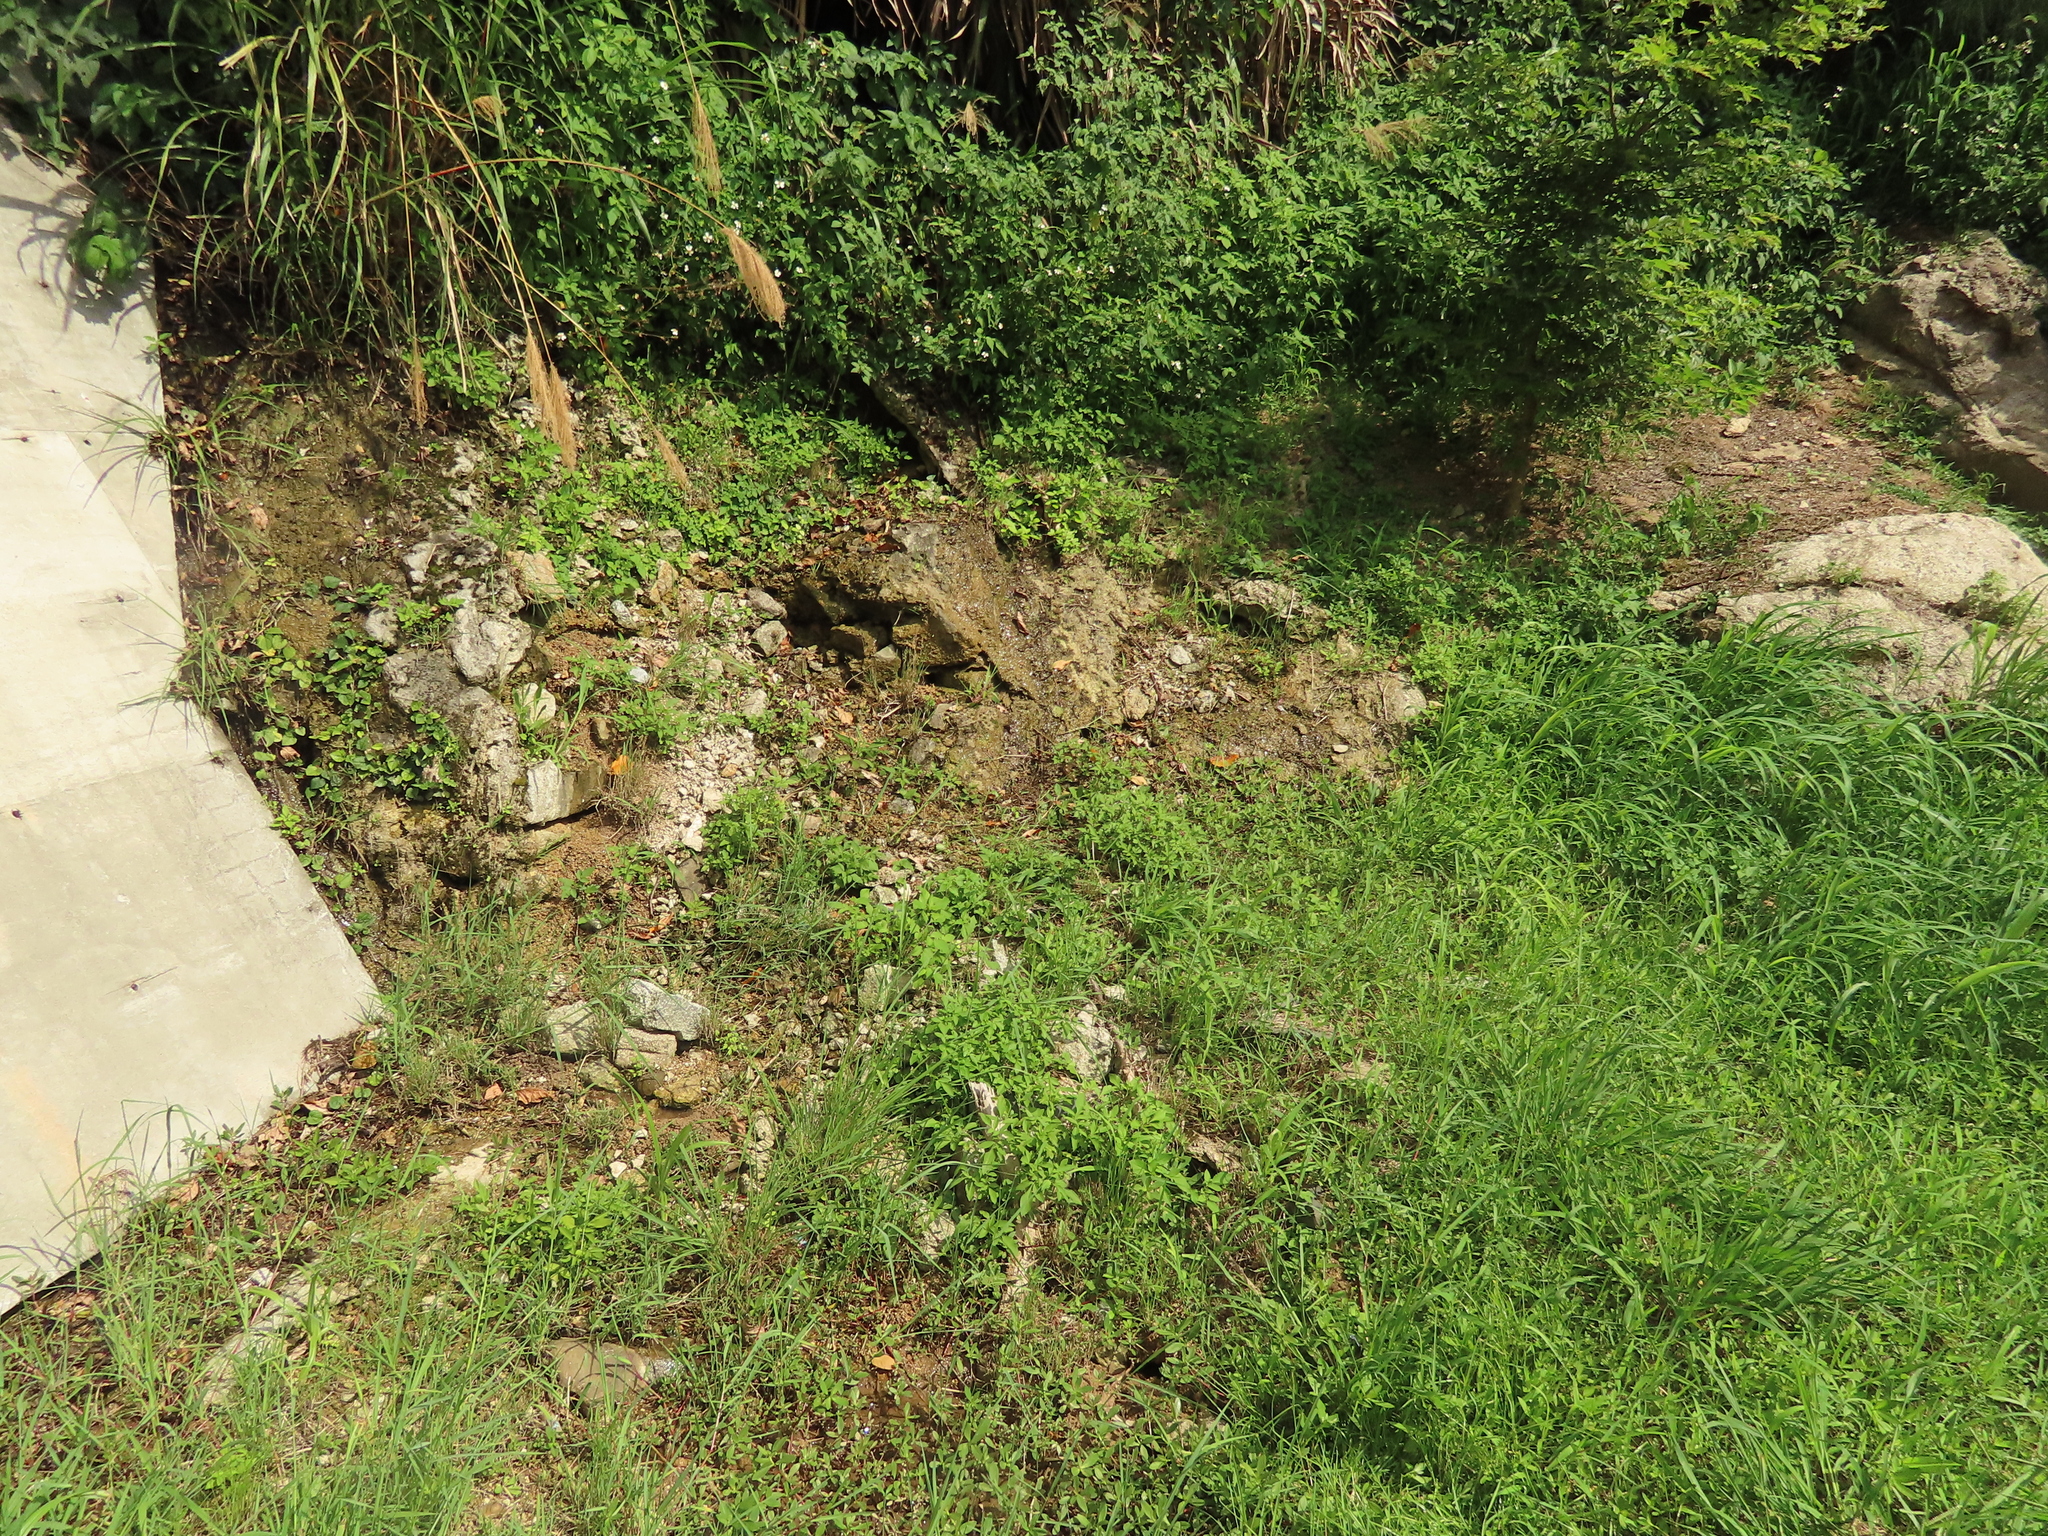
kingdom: Plantae
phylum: Tracheophyta
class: Magnoliopsida
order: Caryophyllales
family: Amaranthaceae
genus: Alternanthera
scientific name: Alternanthera philoxeroides
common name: Alligatorweed
